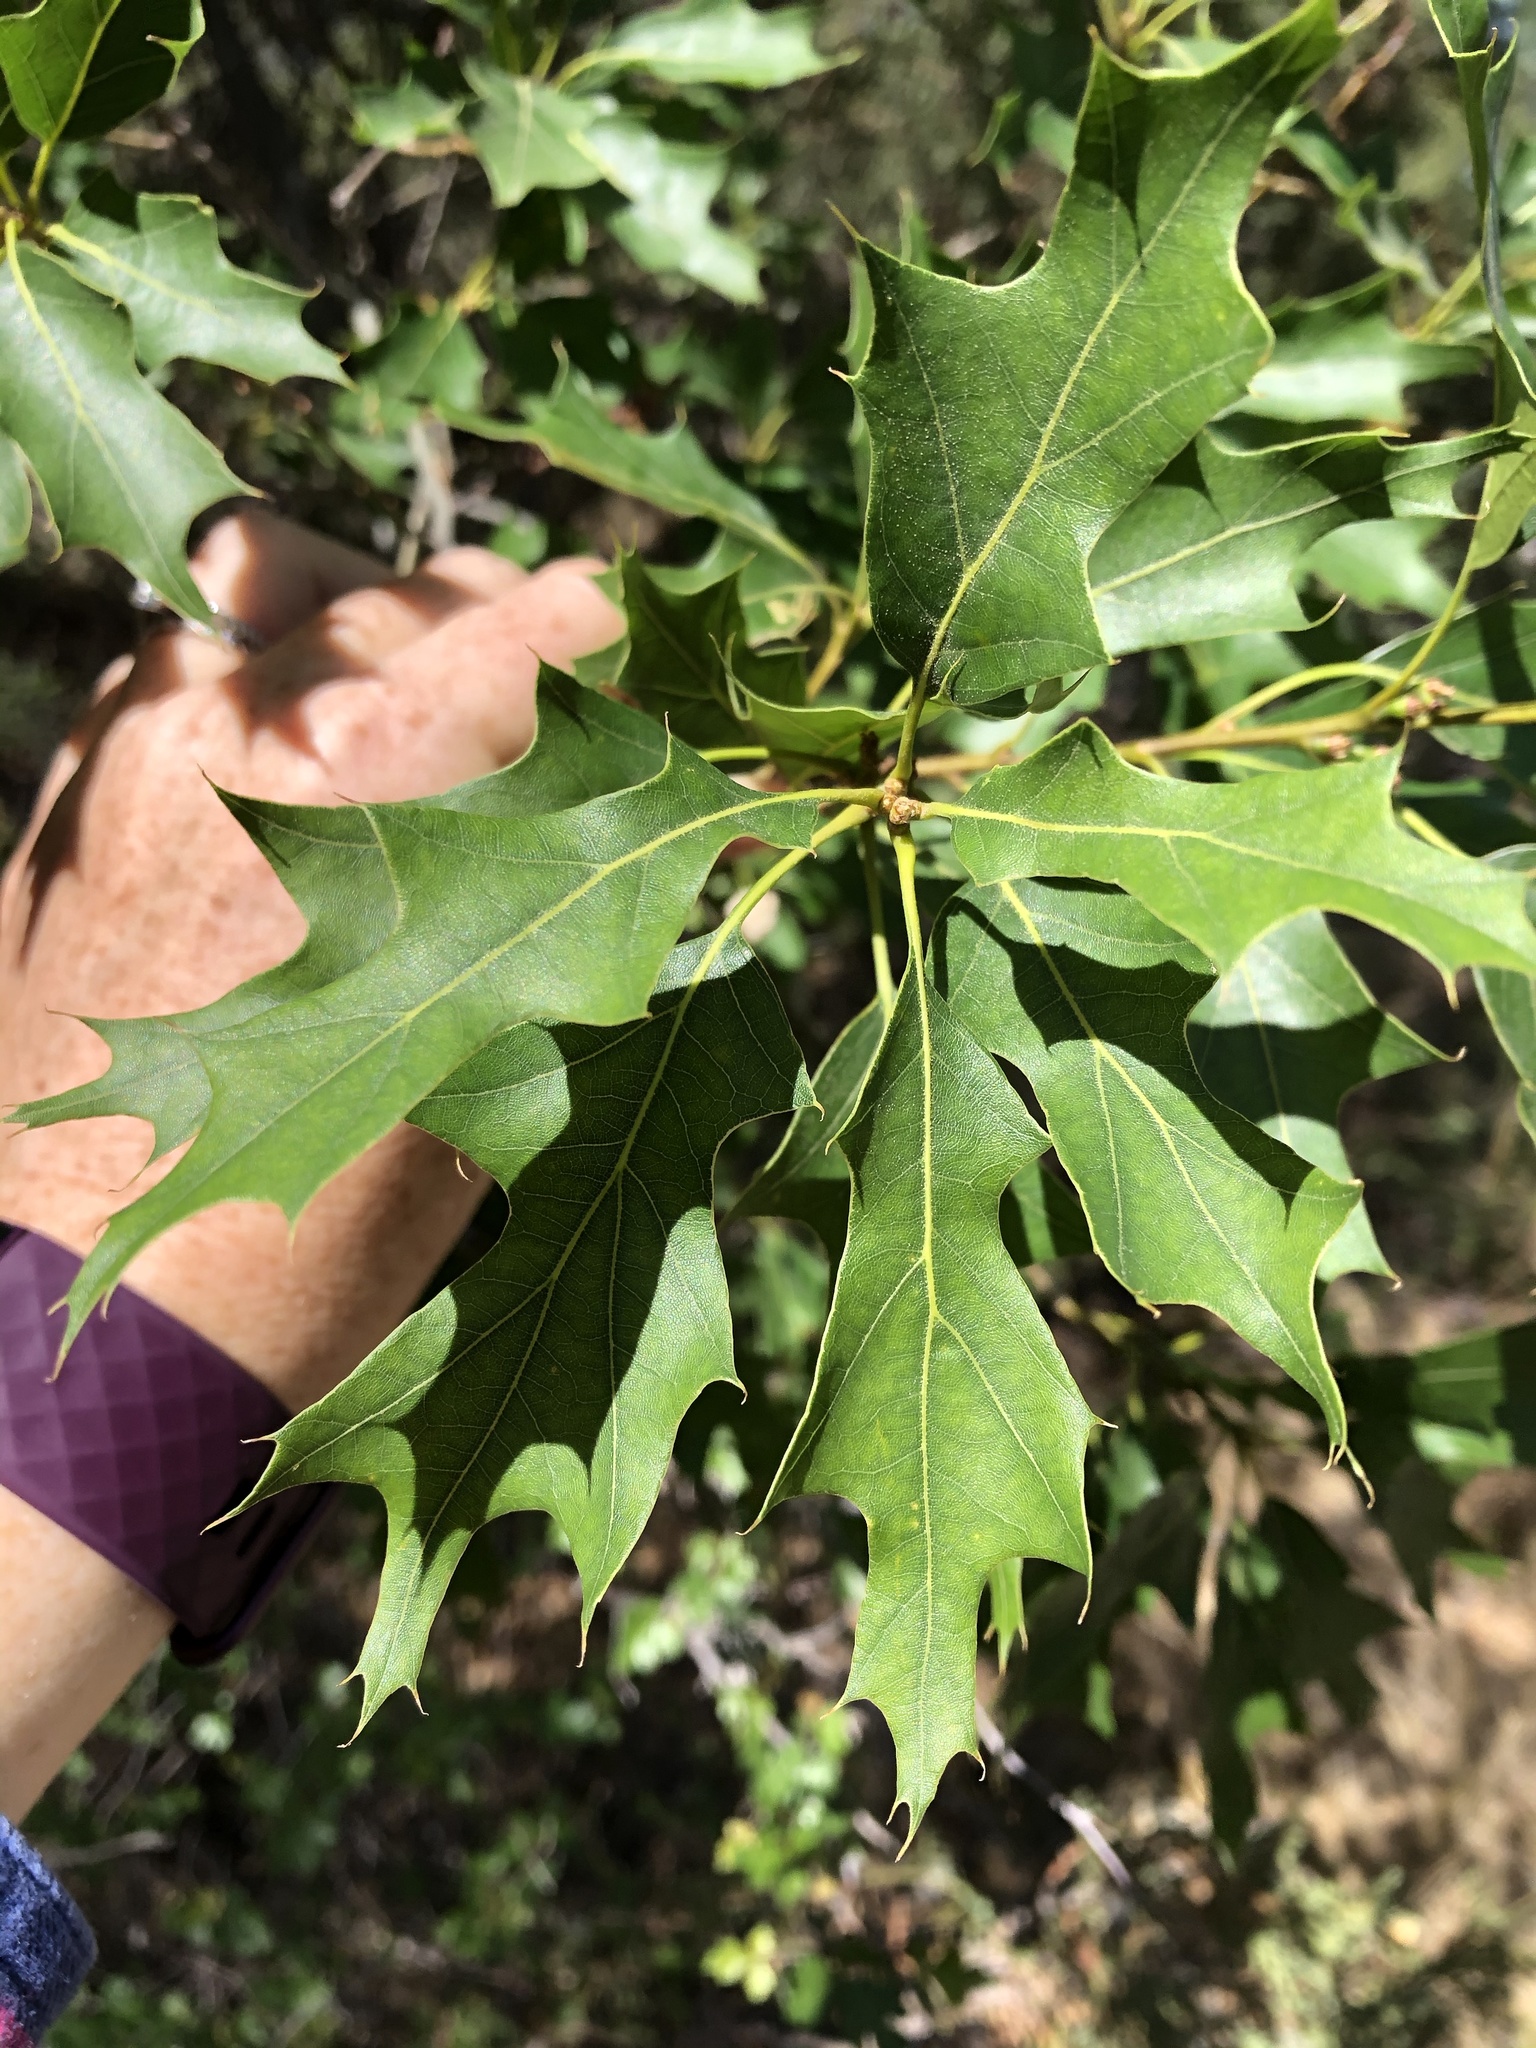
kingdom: Plantae
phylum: Tracheophyta
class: Magnoliopsida
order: Fagales
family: Fagaceae
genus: Quercus
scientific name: Quercus gravesii
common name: Chisos red oak
